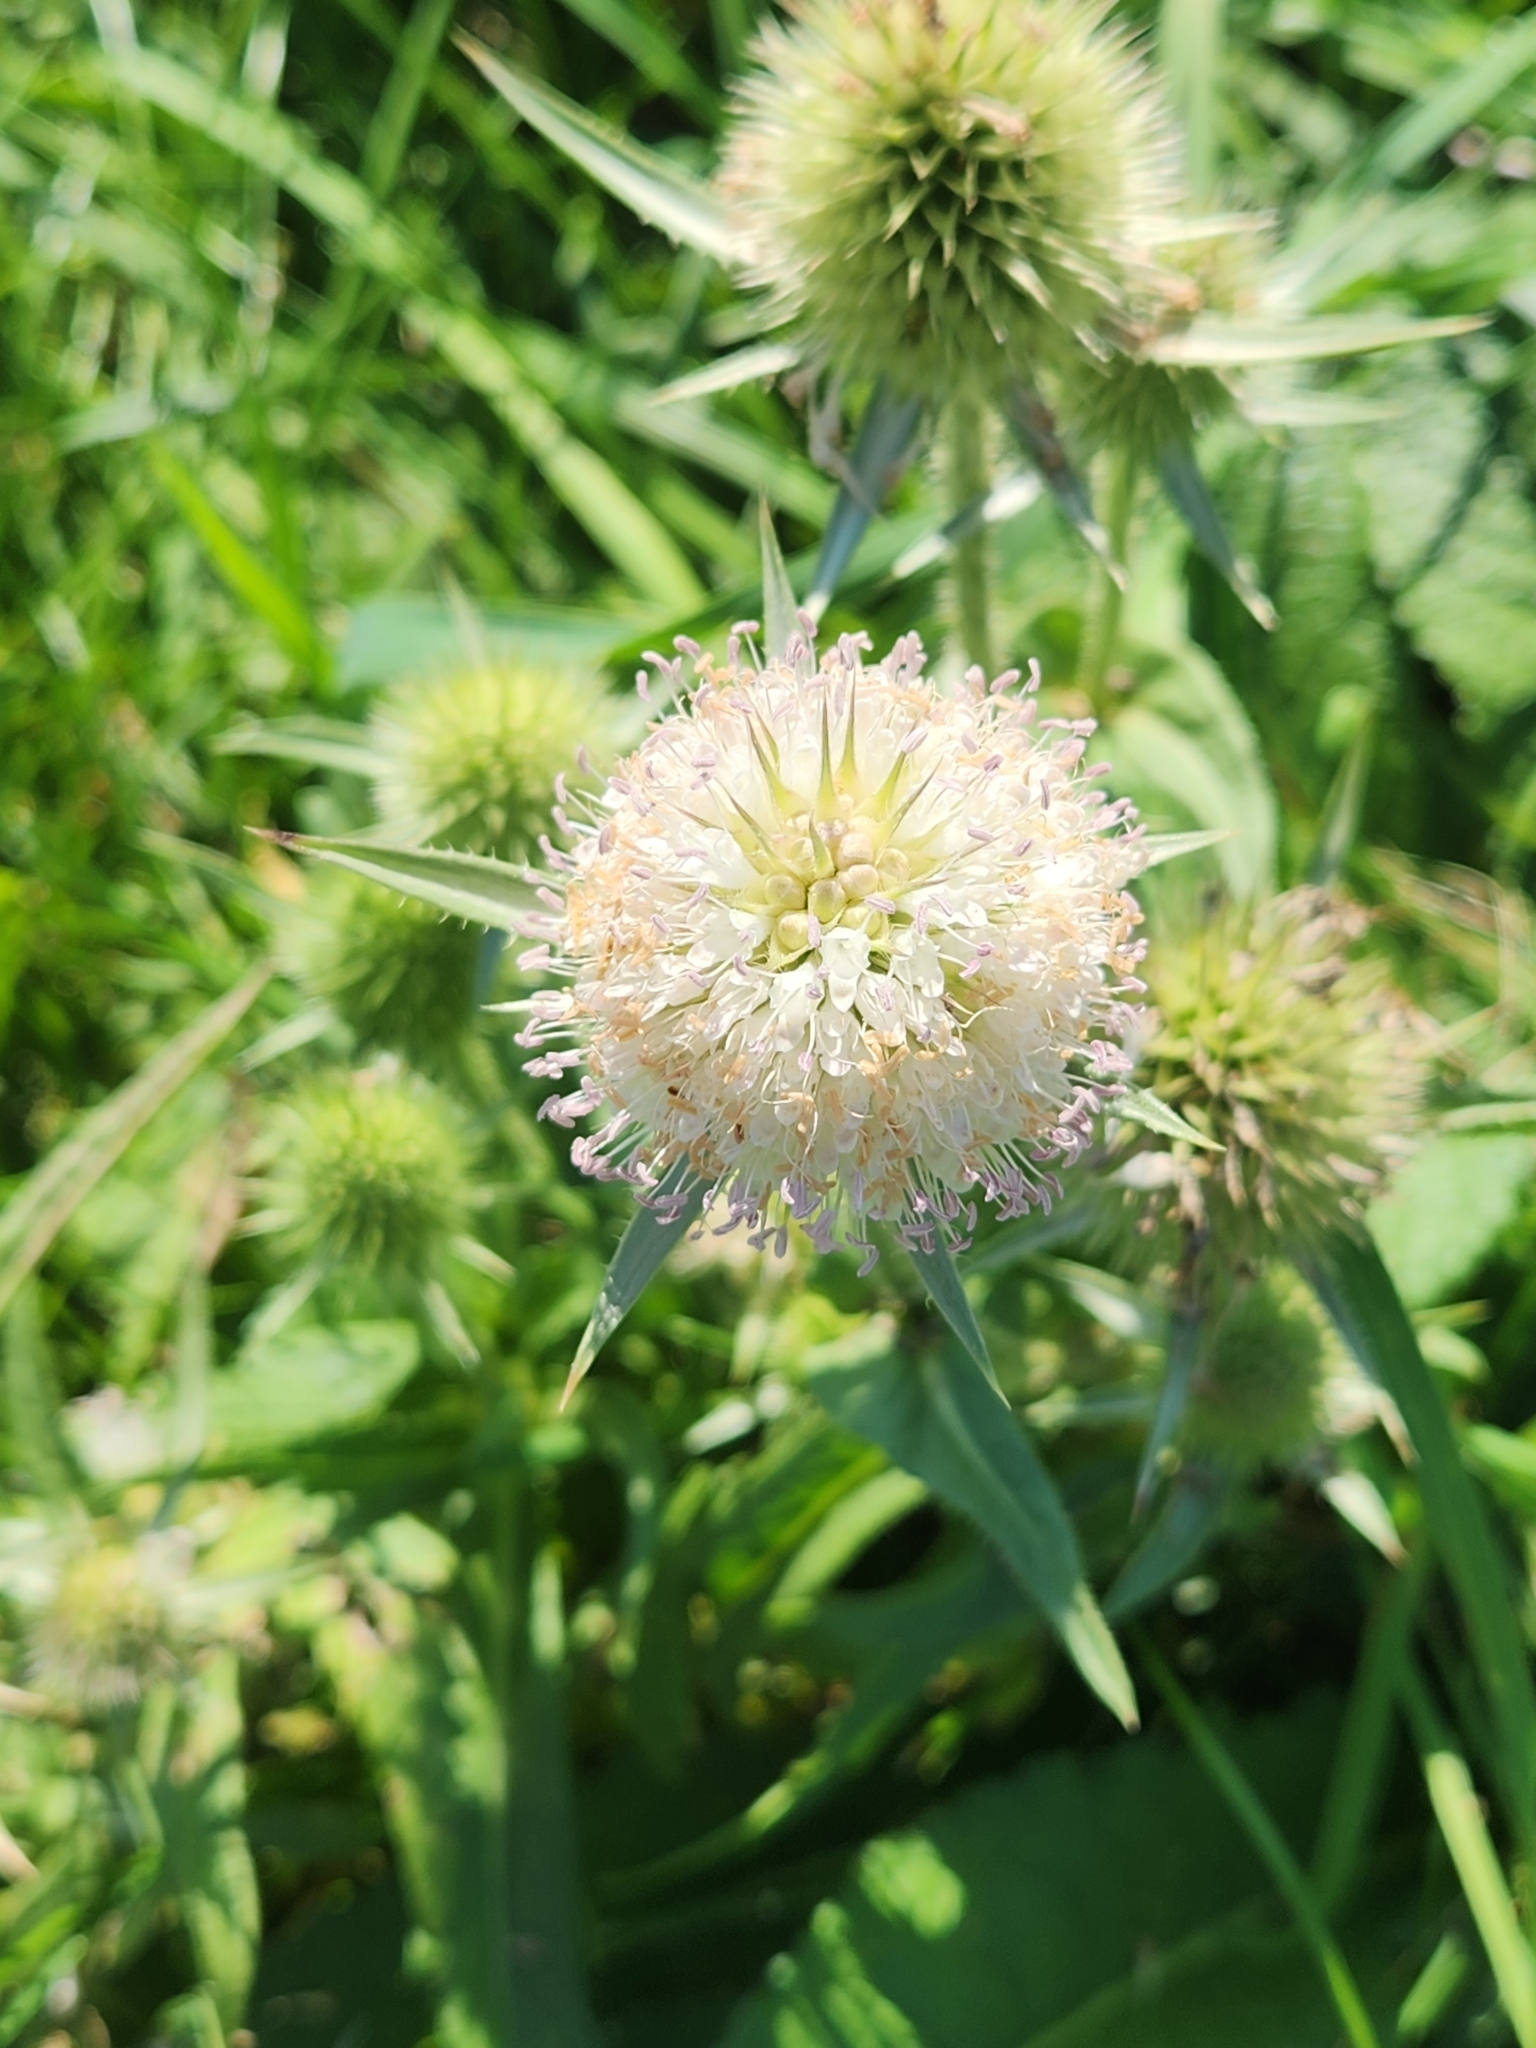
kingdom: Plantae
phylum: Tracheophyta
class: Magnoliopsida
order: Dipsacales
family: Caprifoliaceae
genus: Dipsacus
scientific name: Dipsacus laciniatus
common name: Cut-leaved teasel
